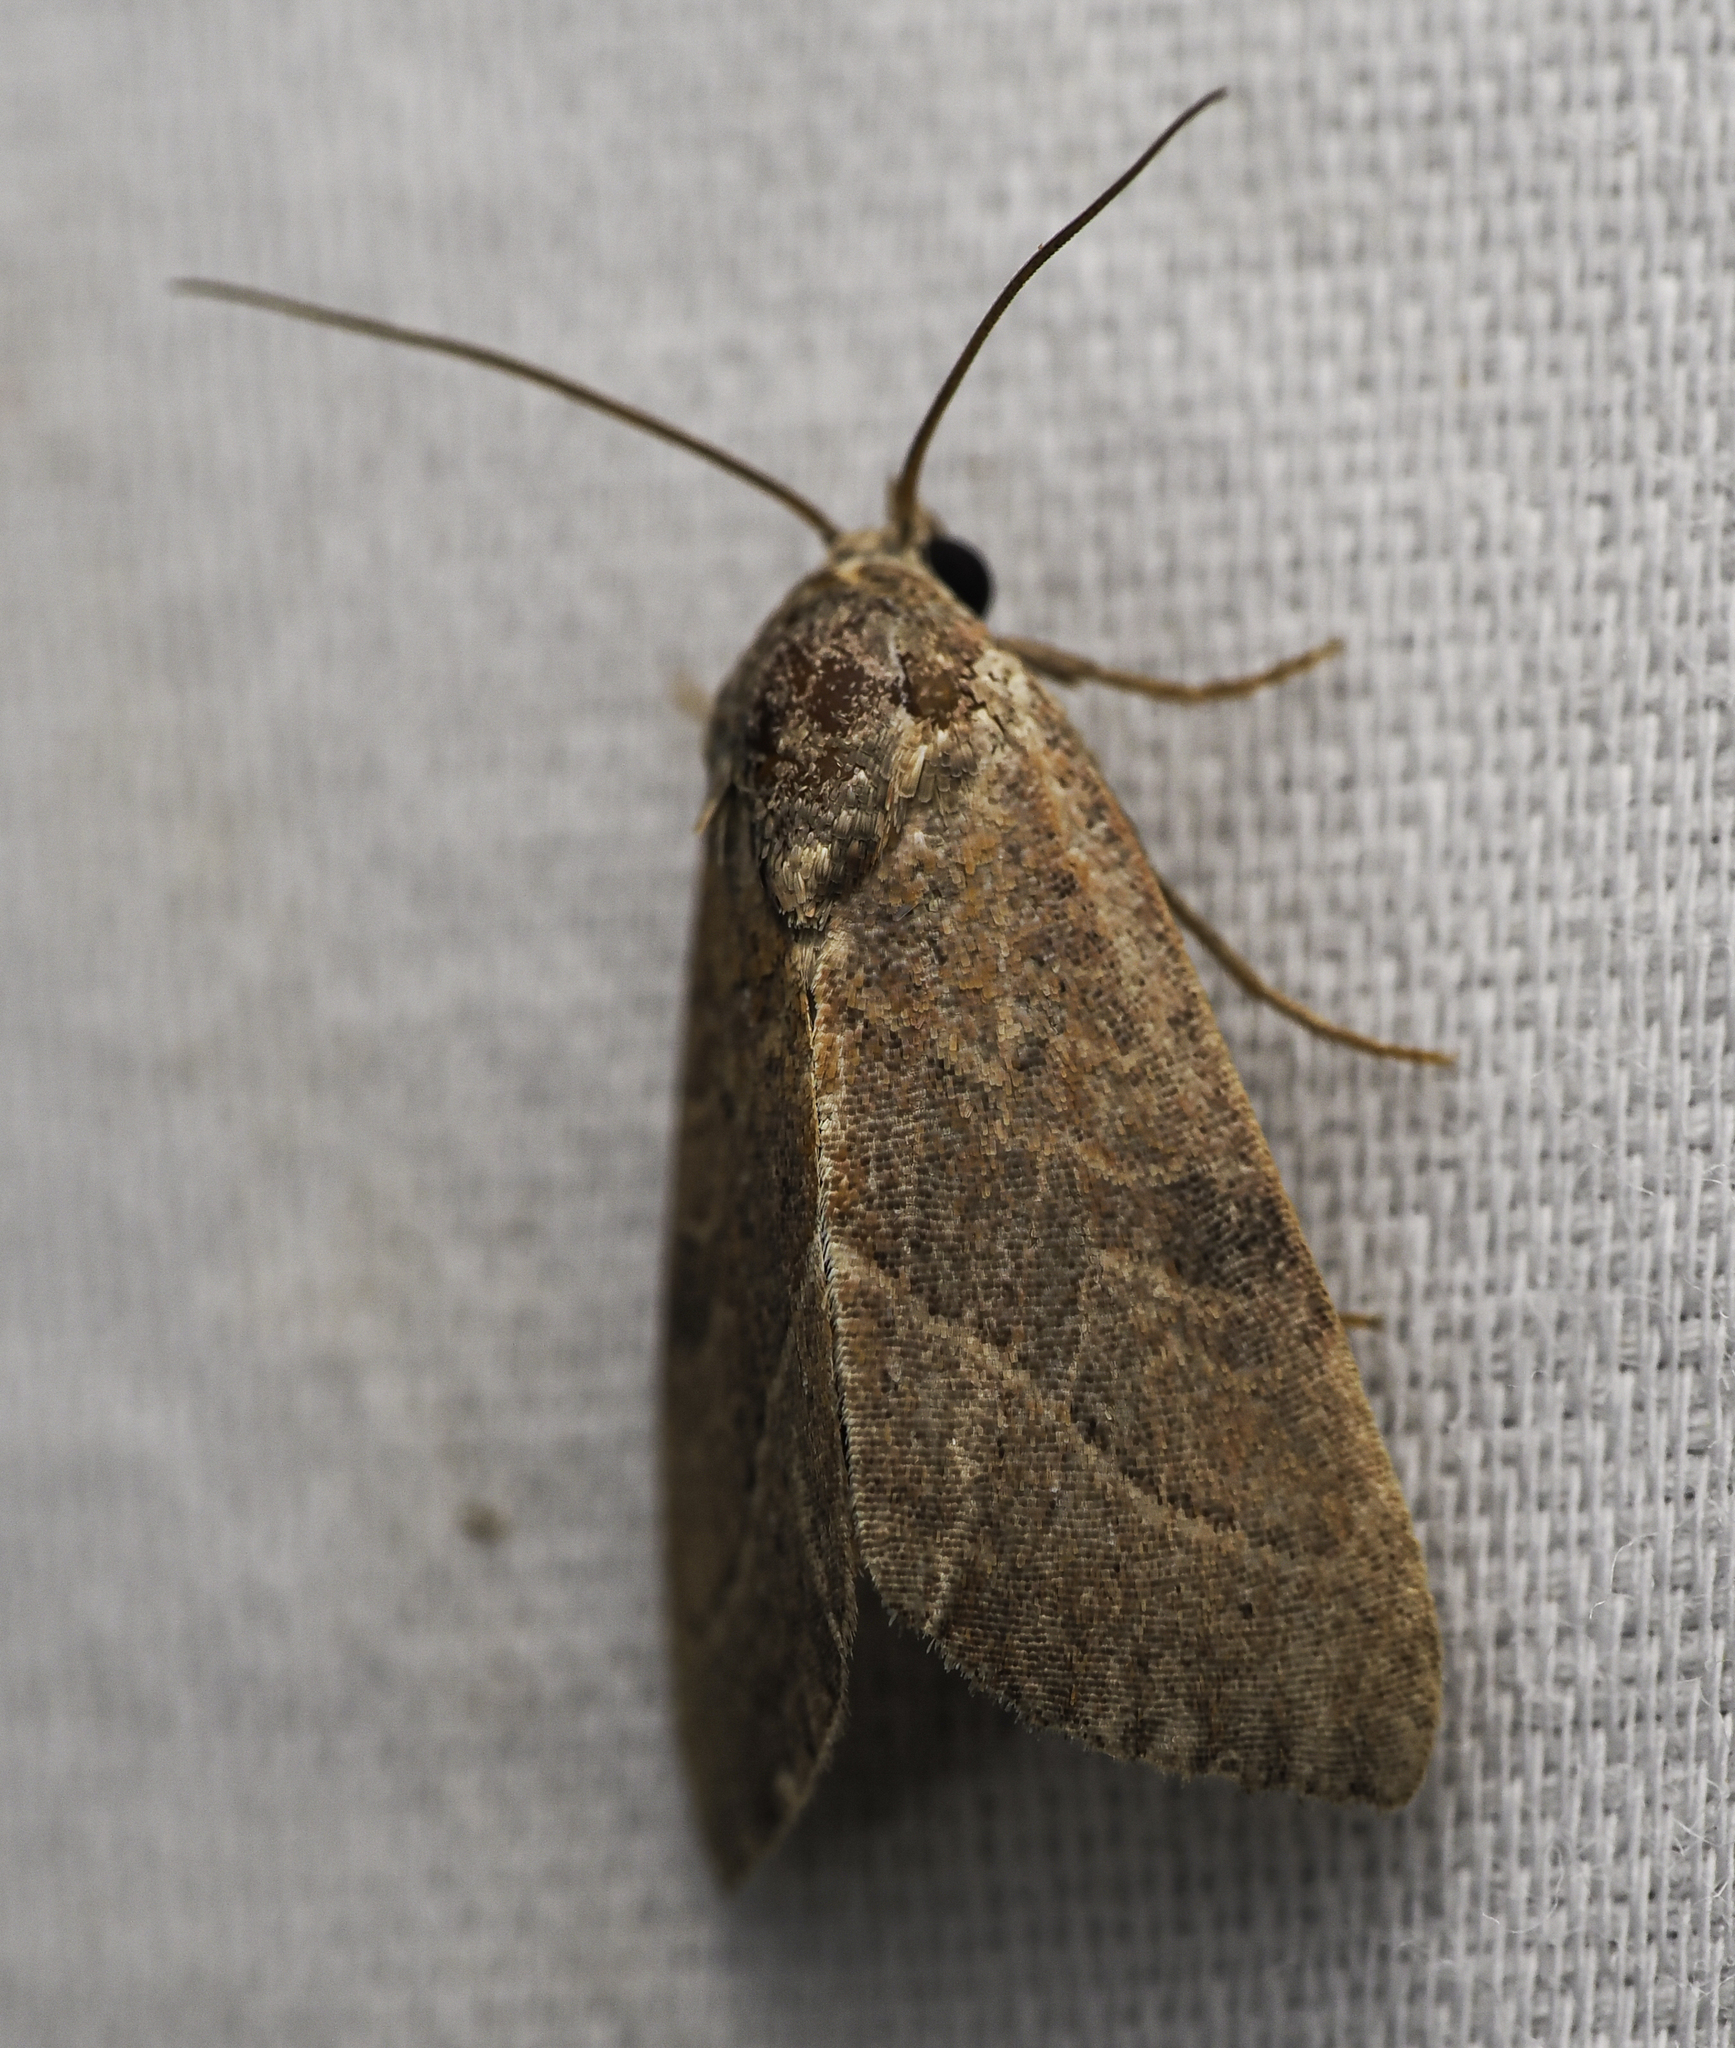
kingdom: Animalia
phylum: Arthropoda
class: Insecta
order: Lepidoptera
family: Noctuidae
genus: Galgula
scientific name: Galgula partita
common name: Wedgeling
